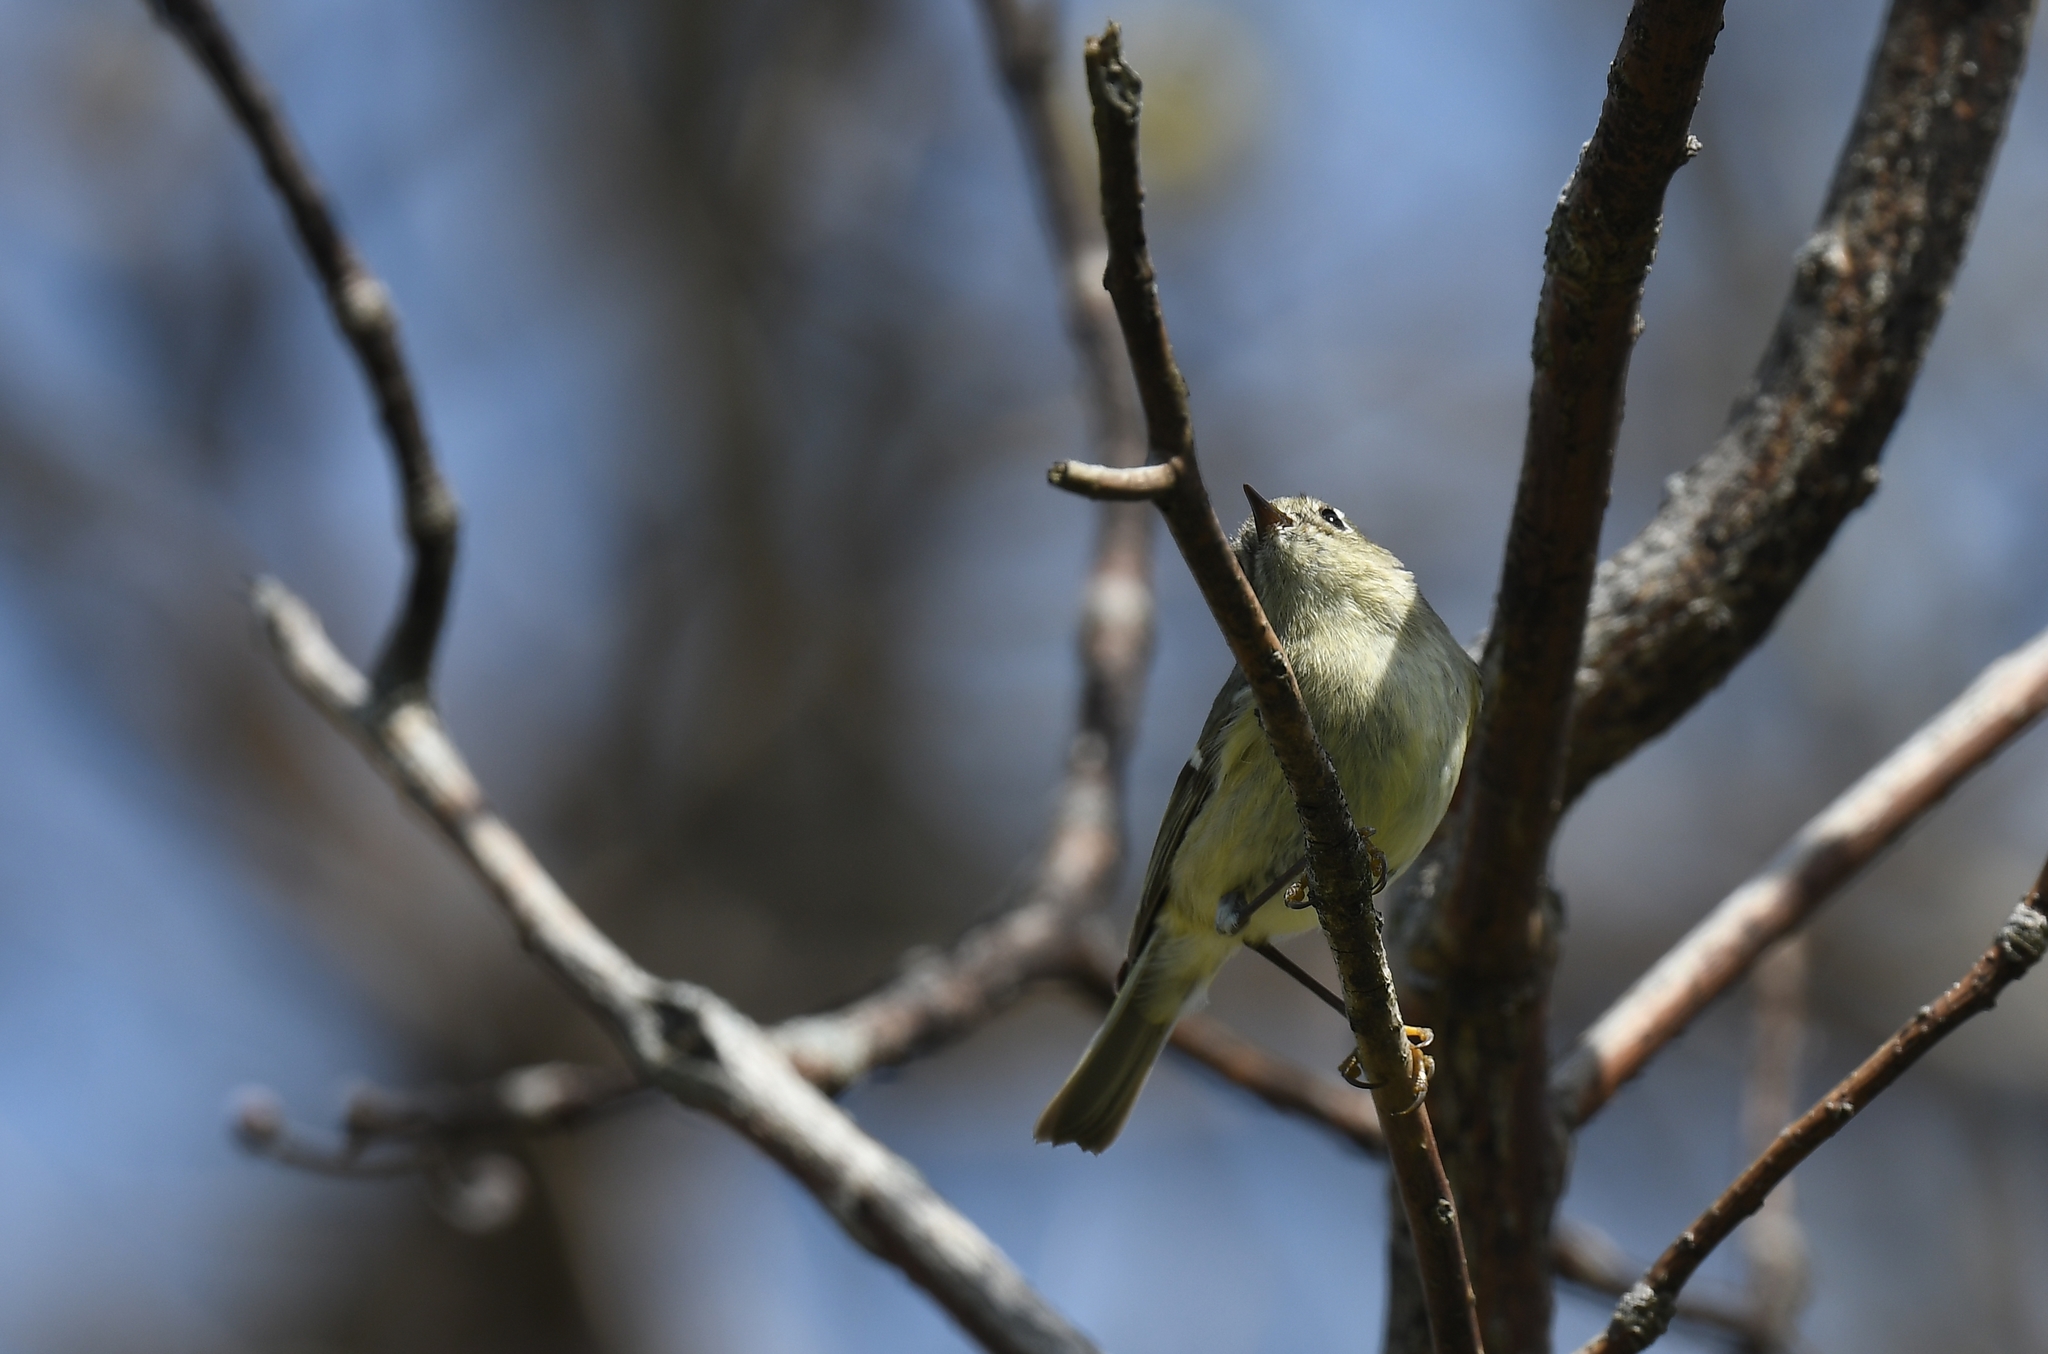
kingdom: Animalia
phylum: Chordata
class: Aves
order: Passeriformes
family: Regulidae
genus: Regulus
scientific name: Regulus calendula
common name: Ruby-crowned kinglet
